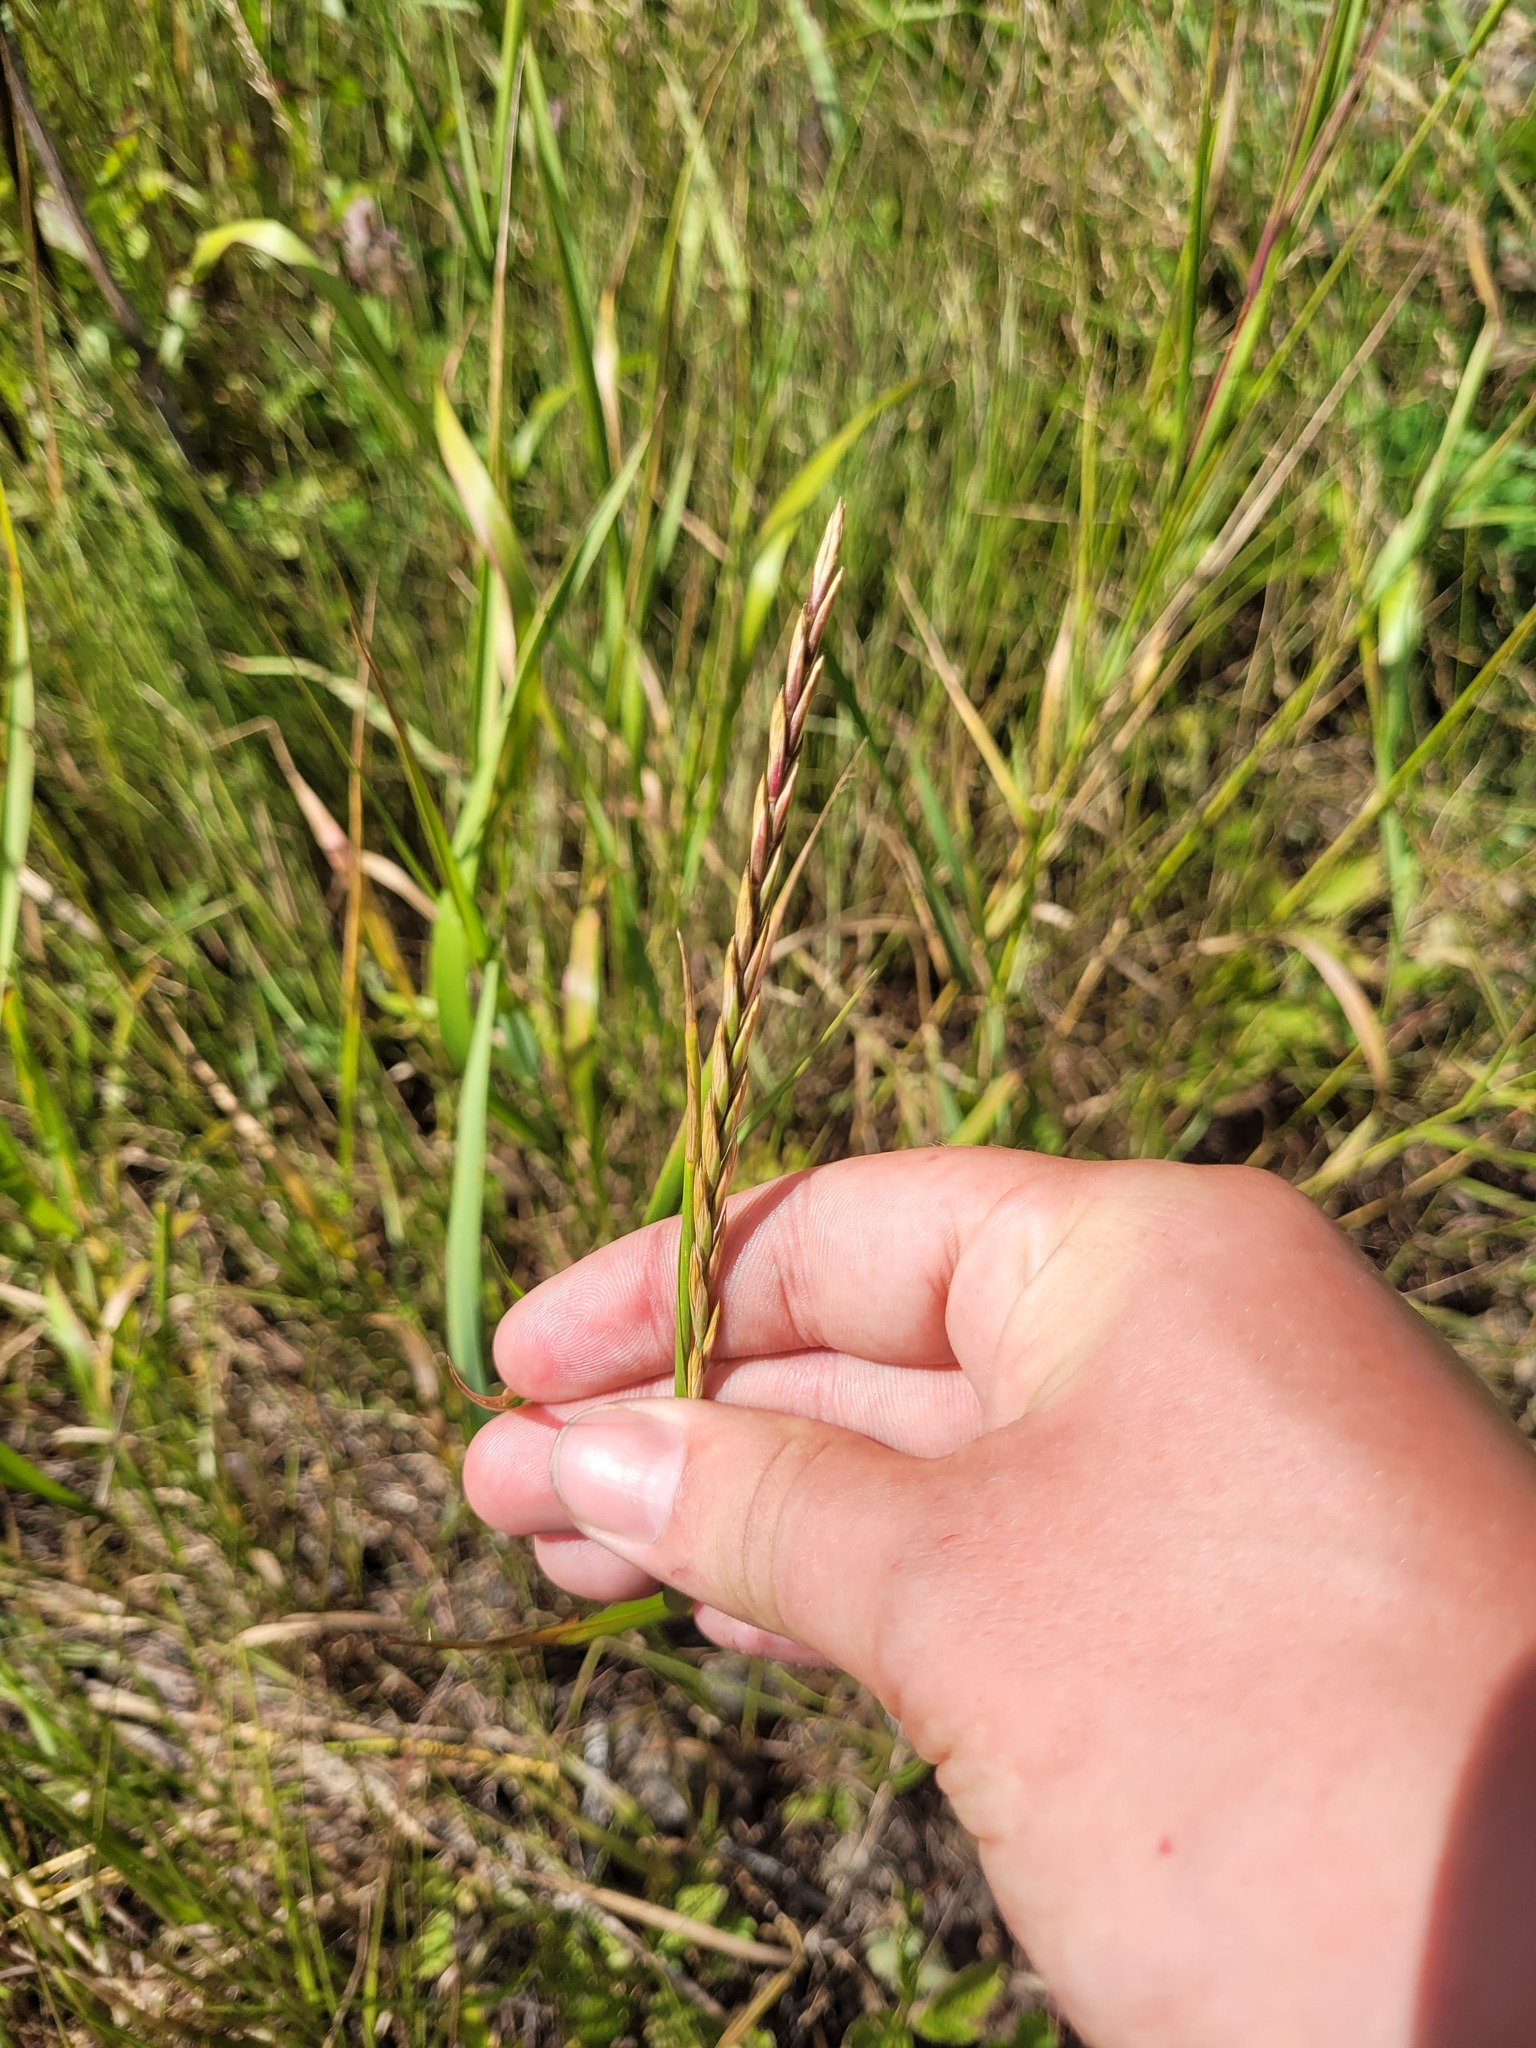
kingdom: Plantae
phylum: Tracheophyta
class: Liliopsida
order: Poales
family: Poaceae
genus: Elymus
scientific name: Elymus repens
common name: Quackgrass
